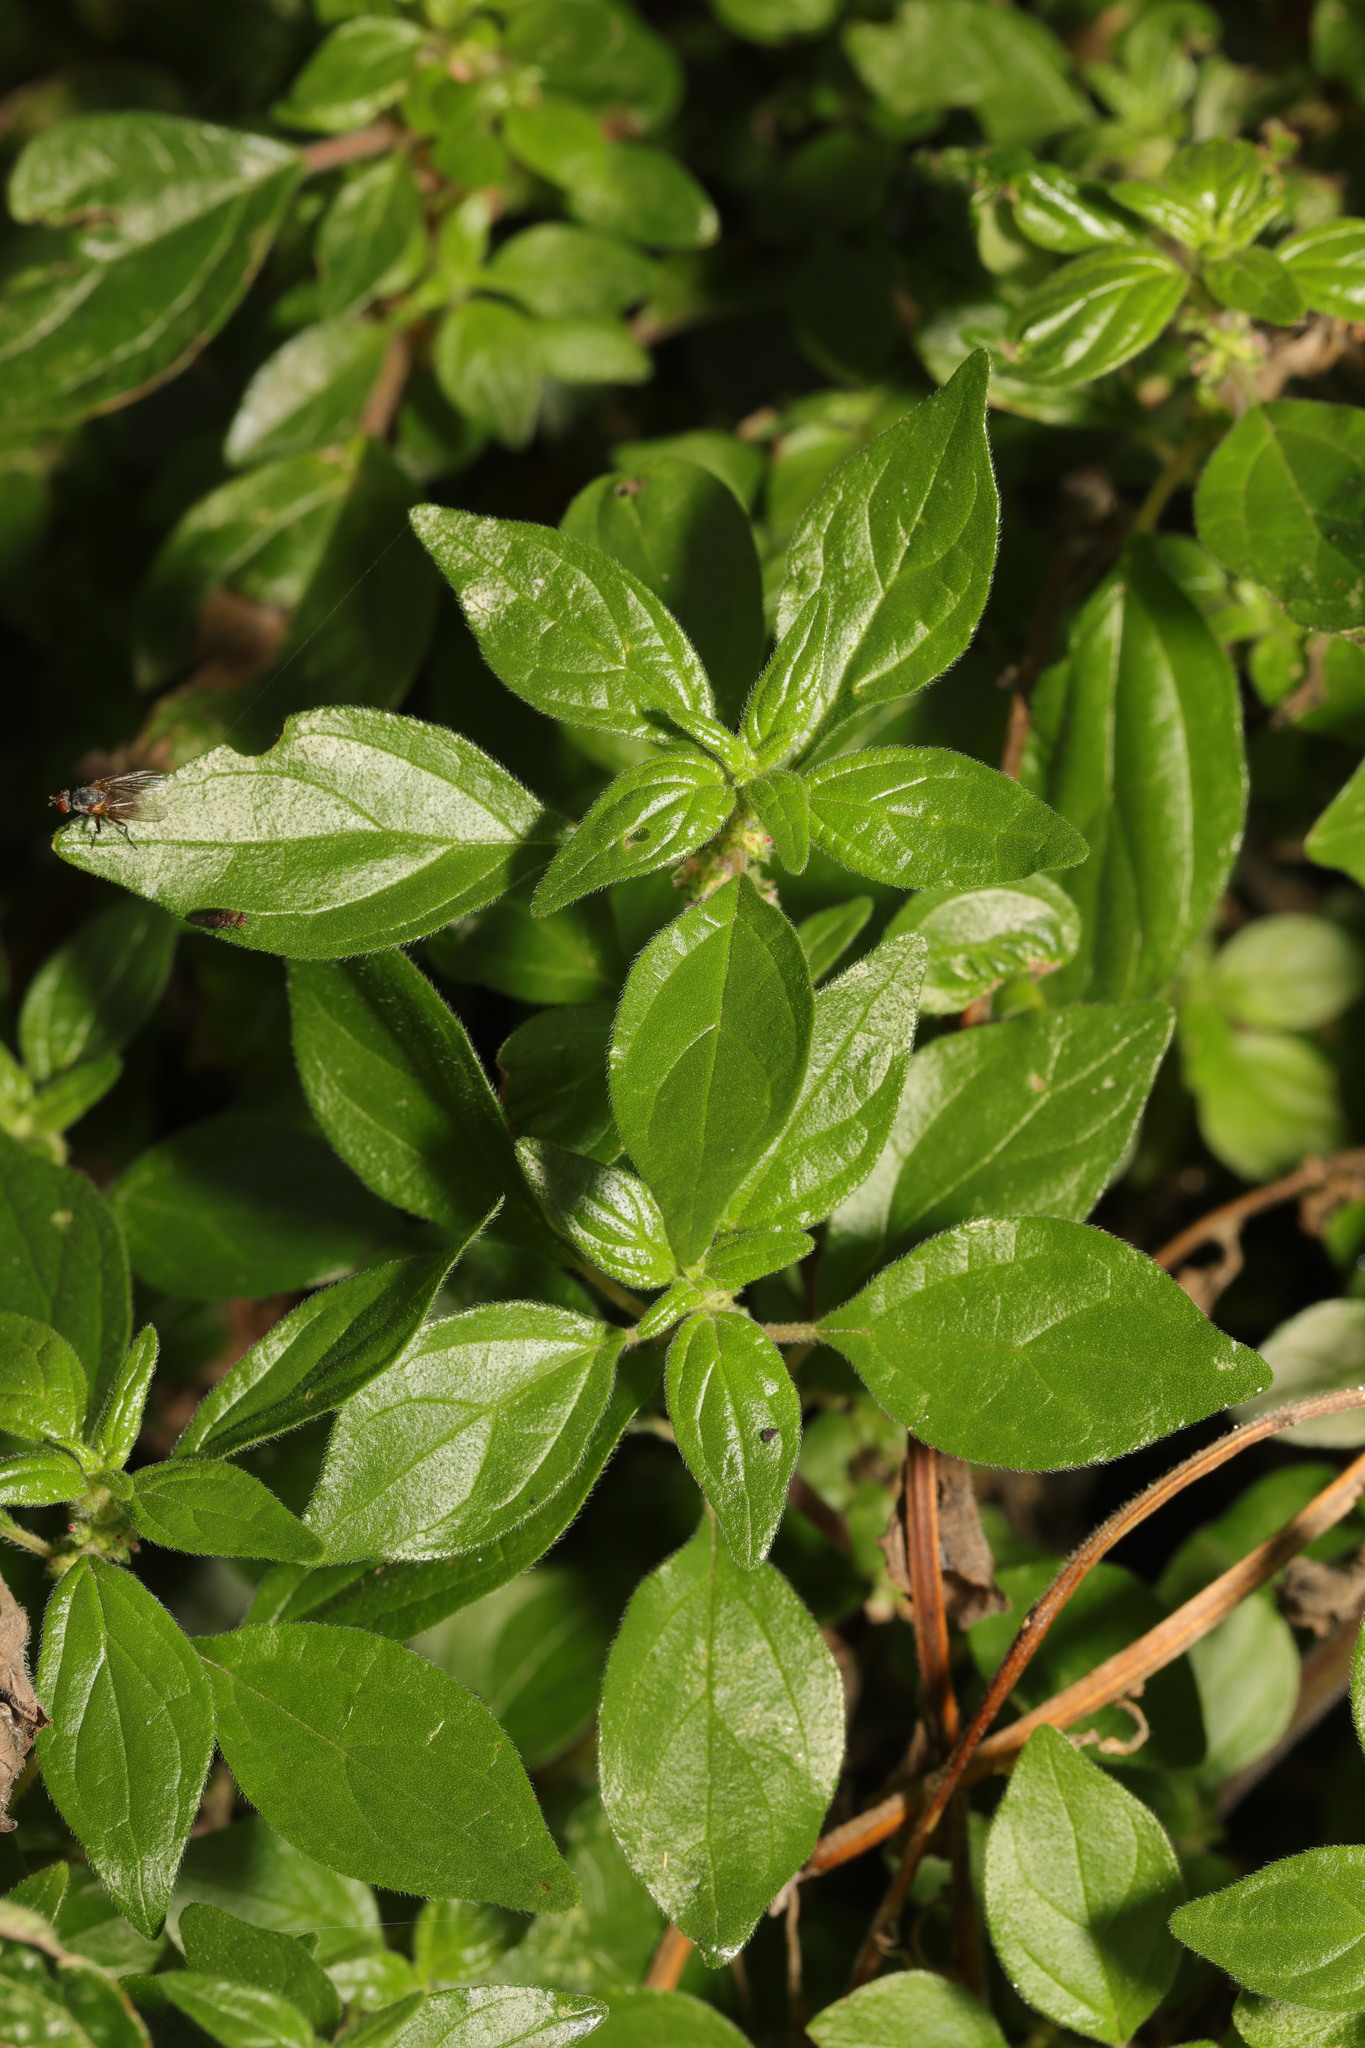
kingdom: Plantae
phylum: Tracheophyta
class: Magnoliopsida
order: Rosales
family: Urticaceae
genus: Parietaria
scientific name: Parietaria judaica
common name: Pellitory-of-the-wall
